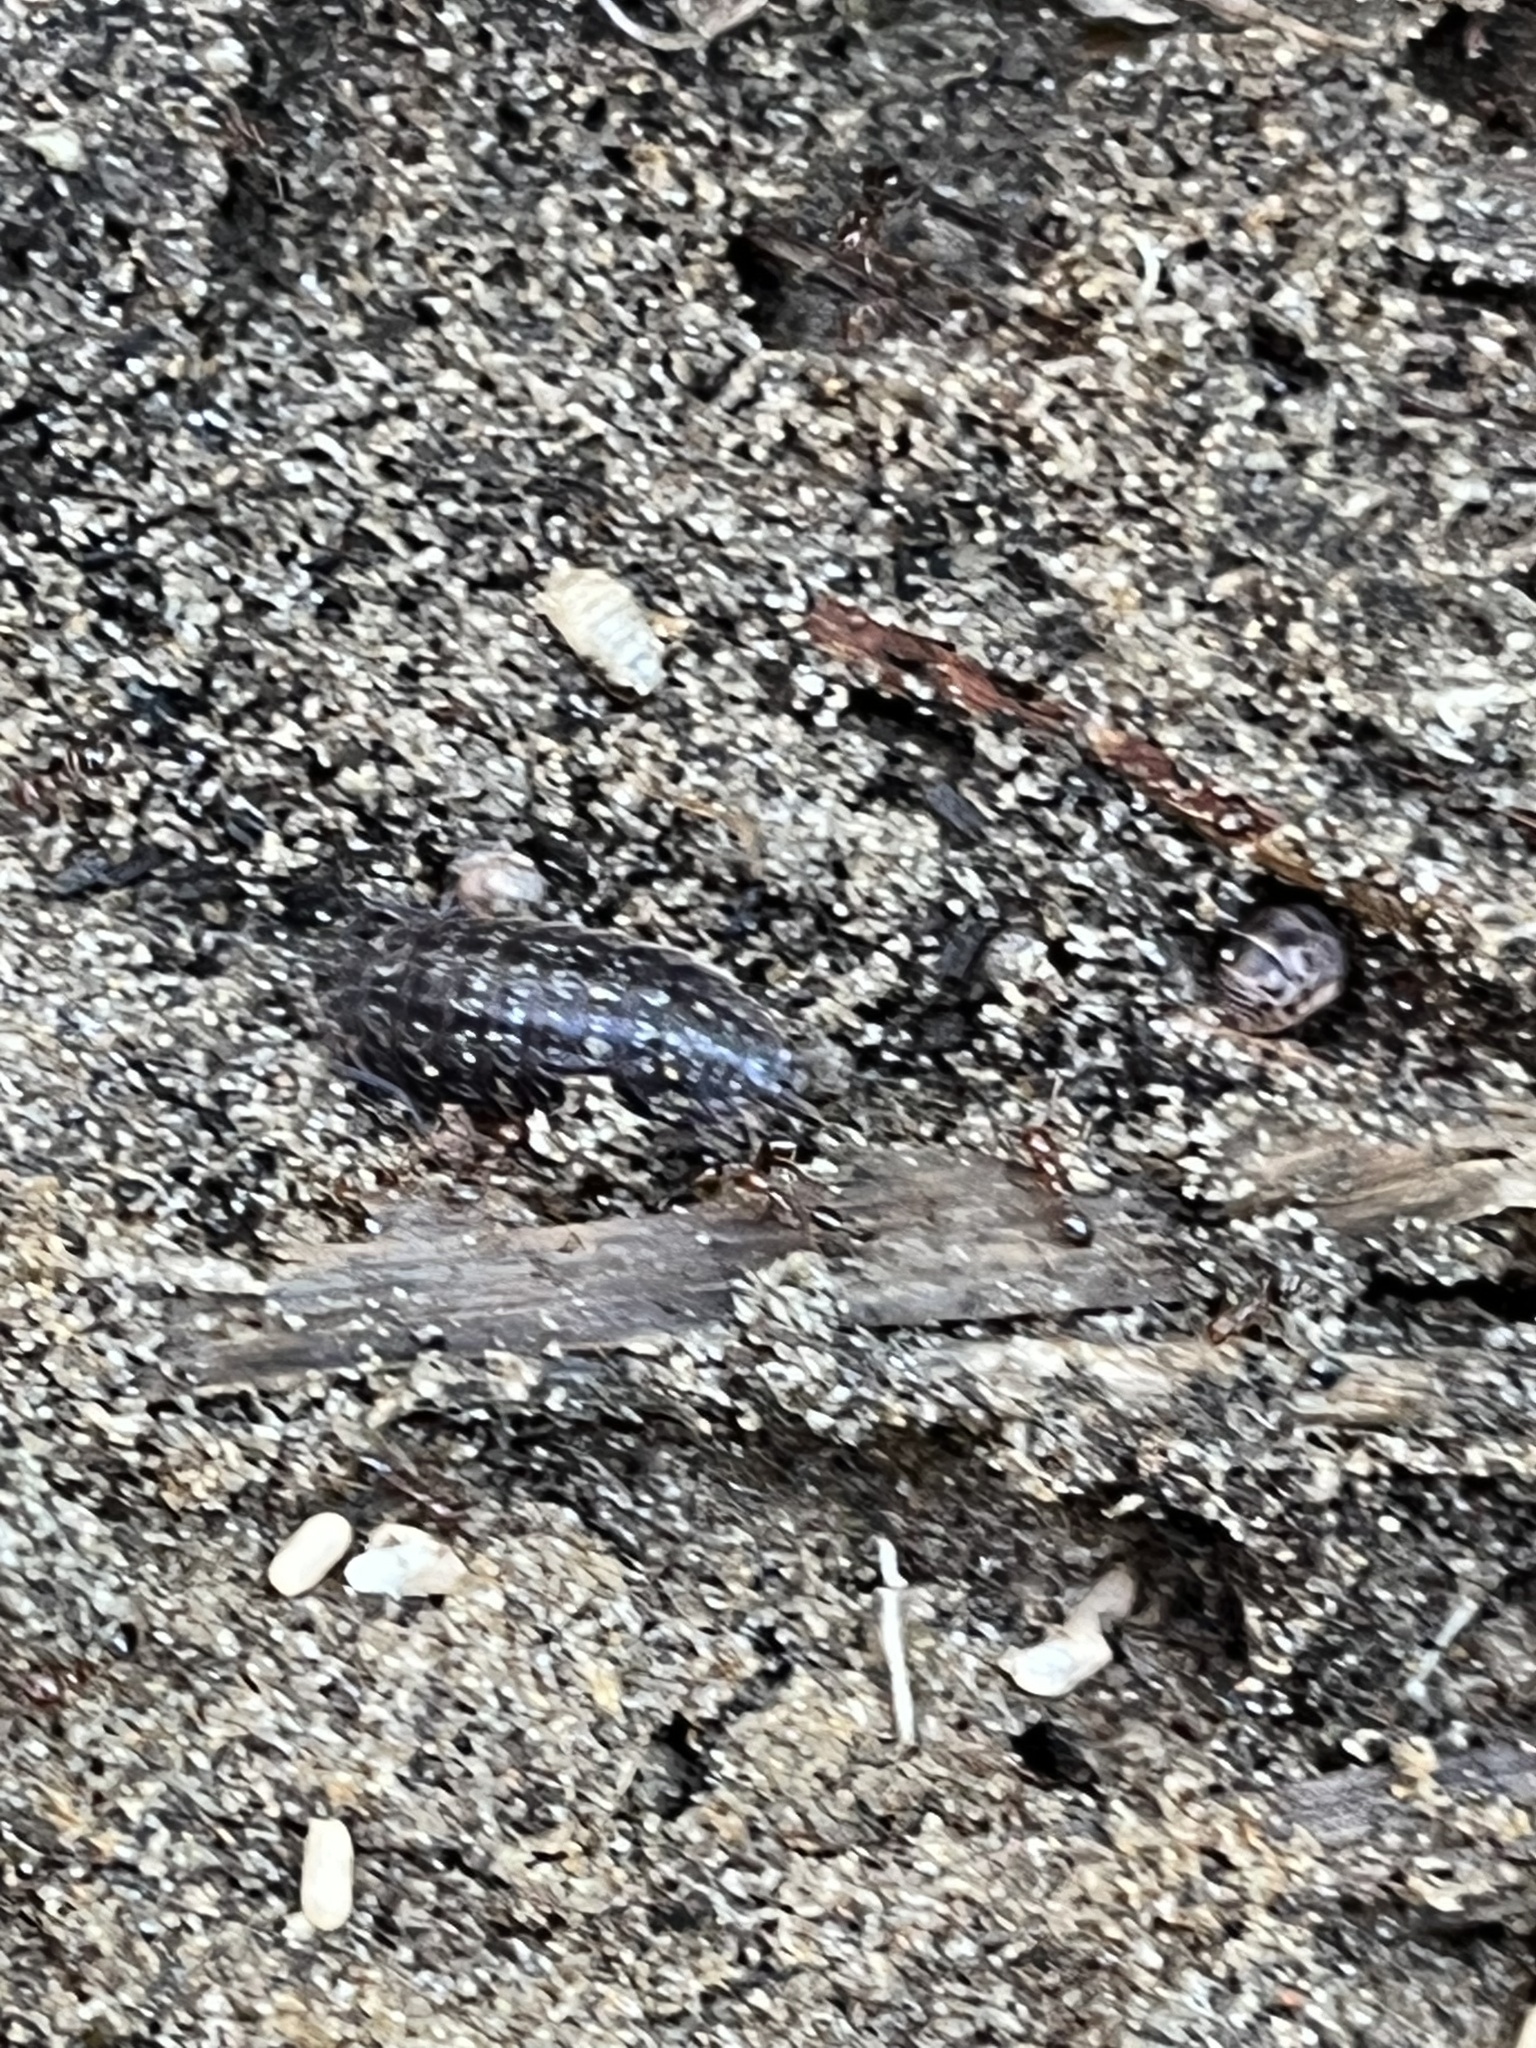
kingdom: Animalia
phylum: Arthropoda
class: Malacostraca
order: Isopoda
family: Porcellionidae
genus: Porcellionides
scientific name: Porcellionides virgatus
